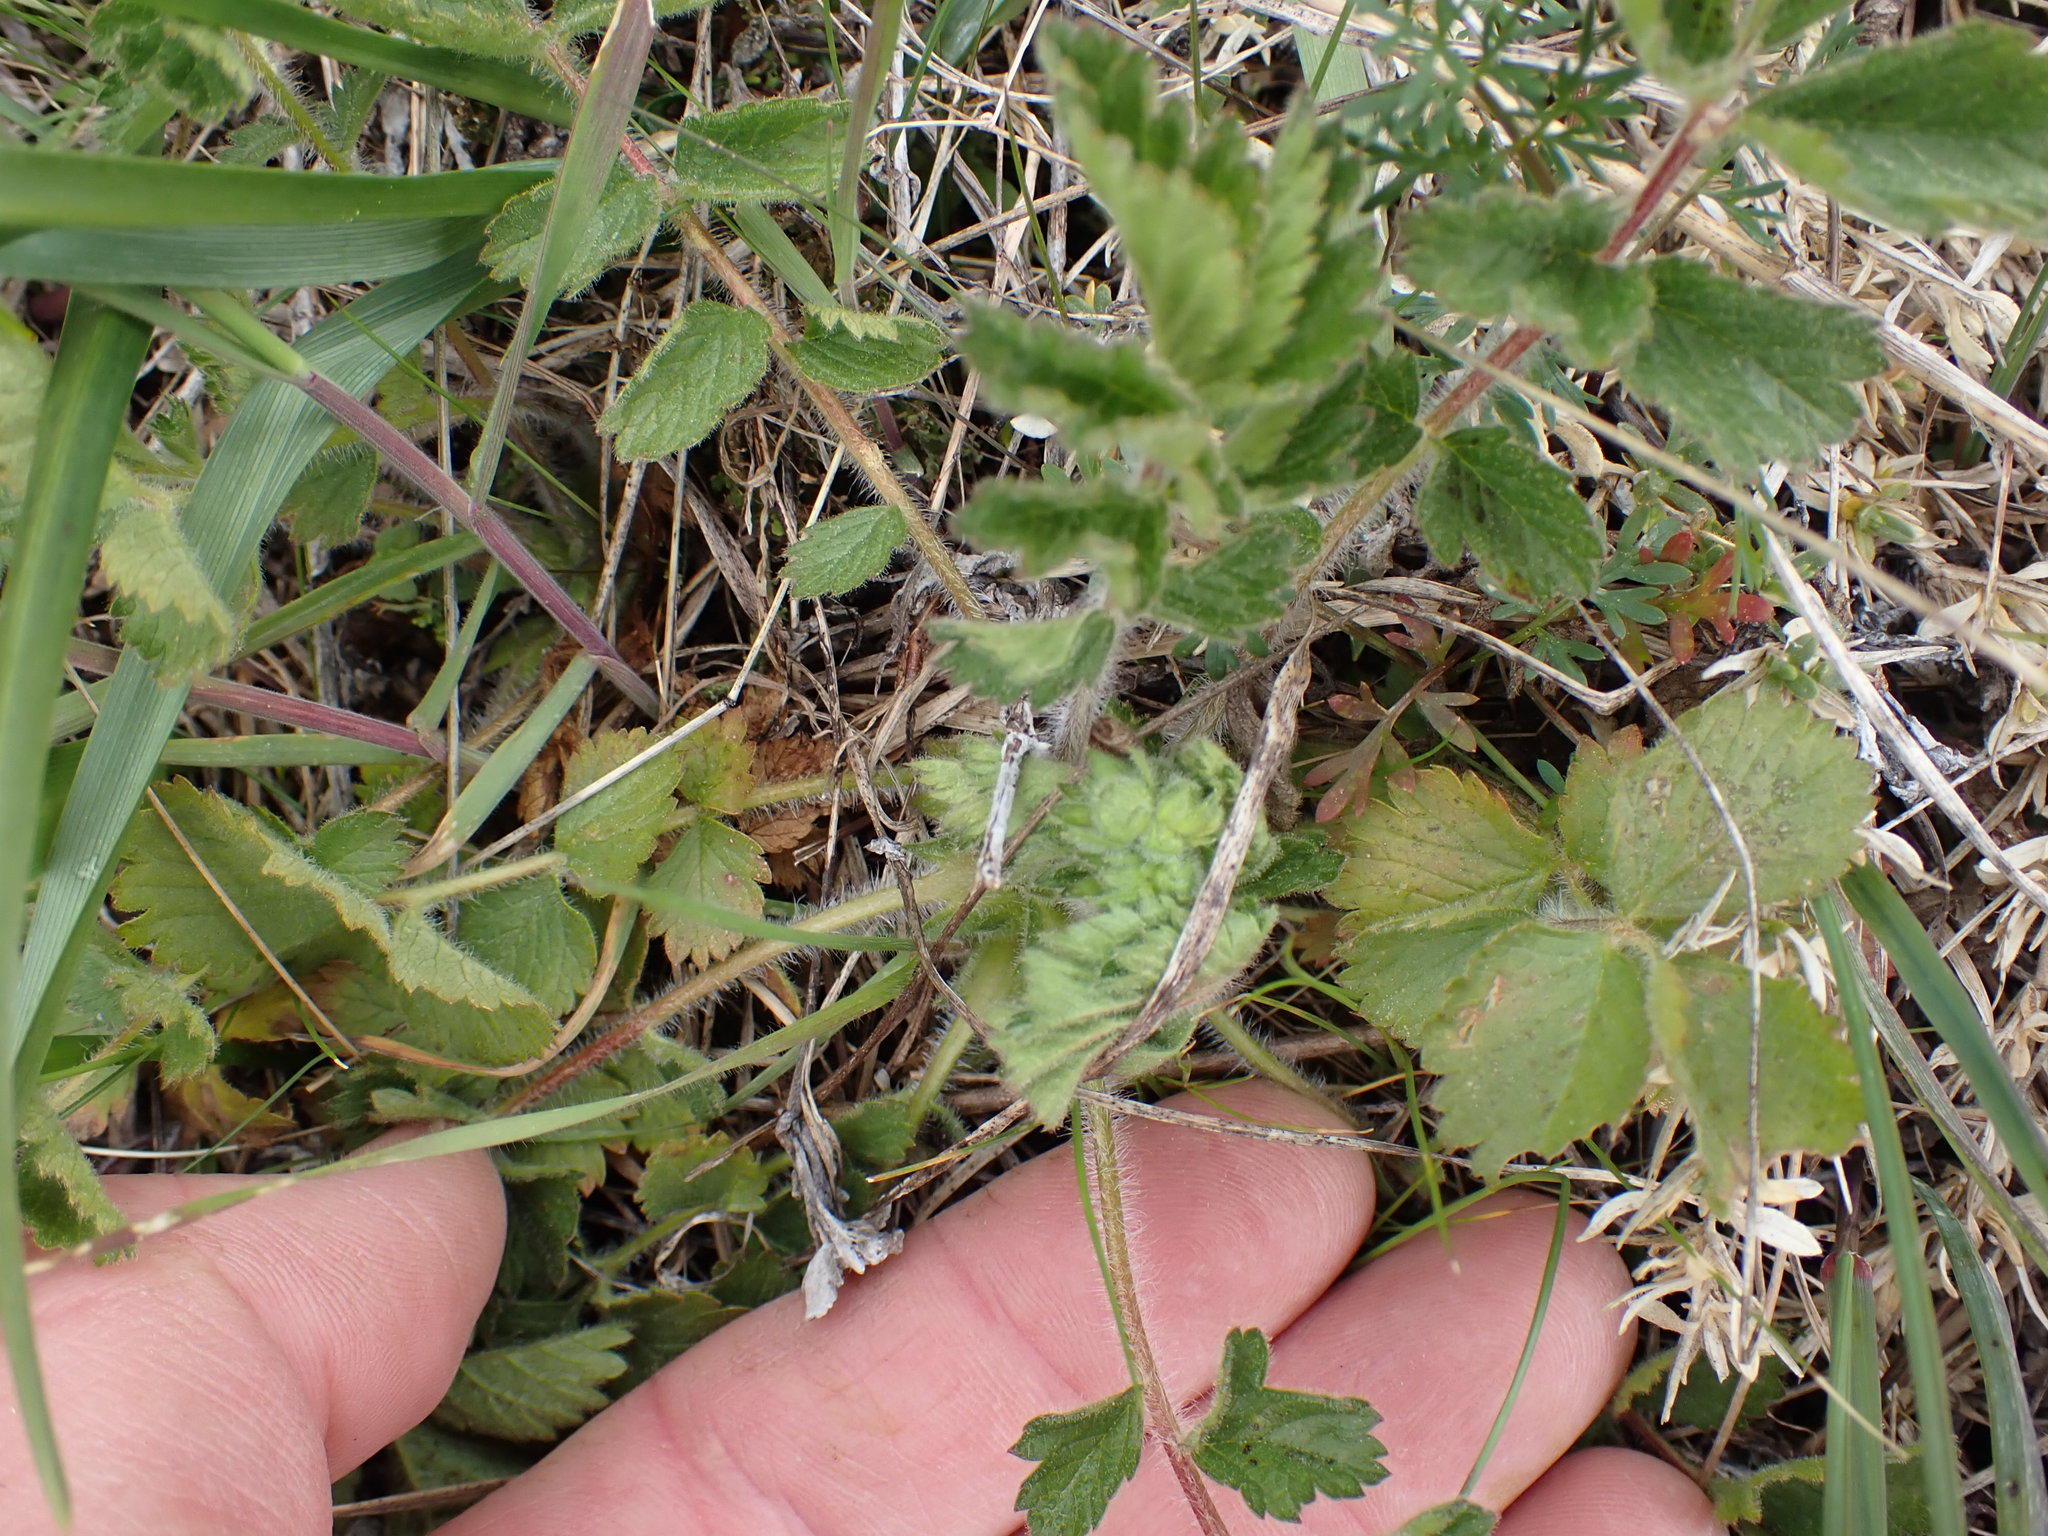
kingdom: Plantae
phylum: Tracheophyta
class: Magnoliopsida
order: Rosales
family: Rosaceae
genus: Drymocallis
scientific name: Drymocallis glandulosa
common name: Sticky cinquefoil
